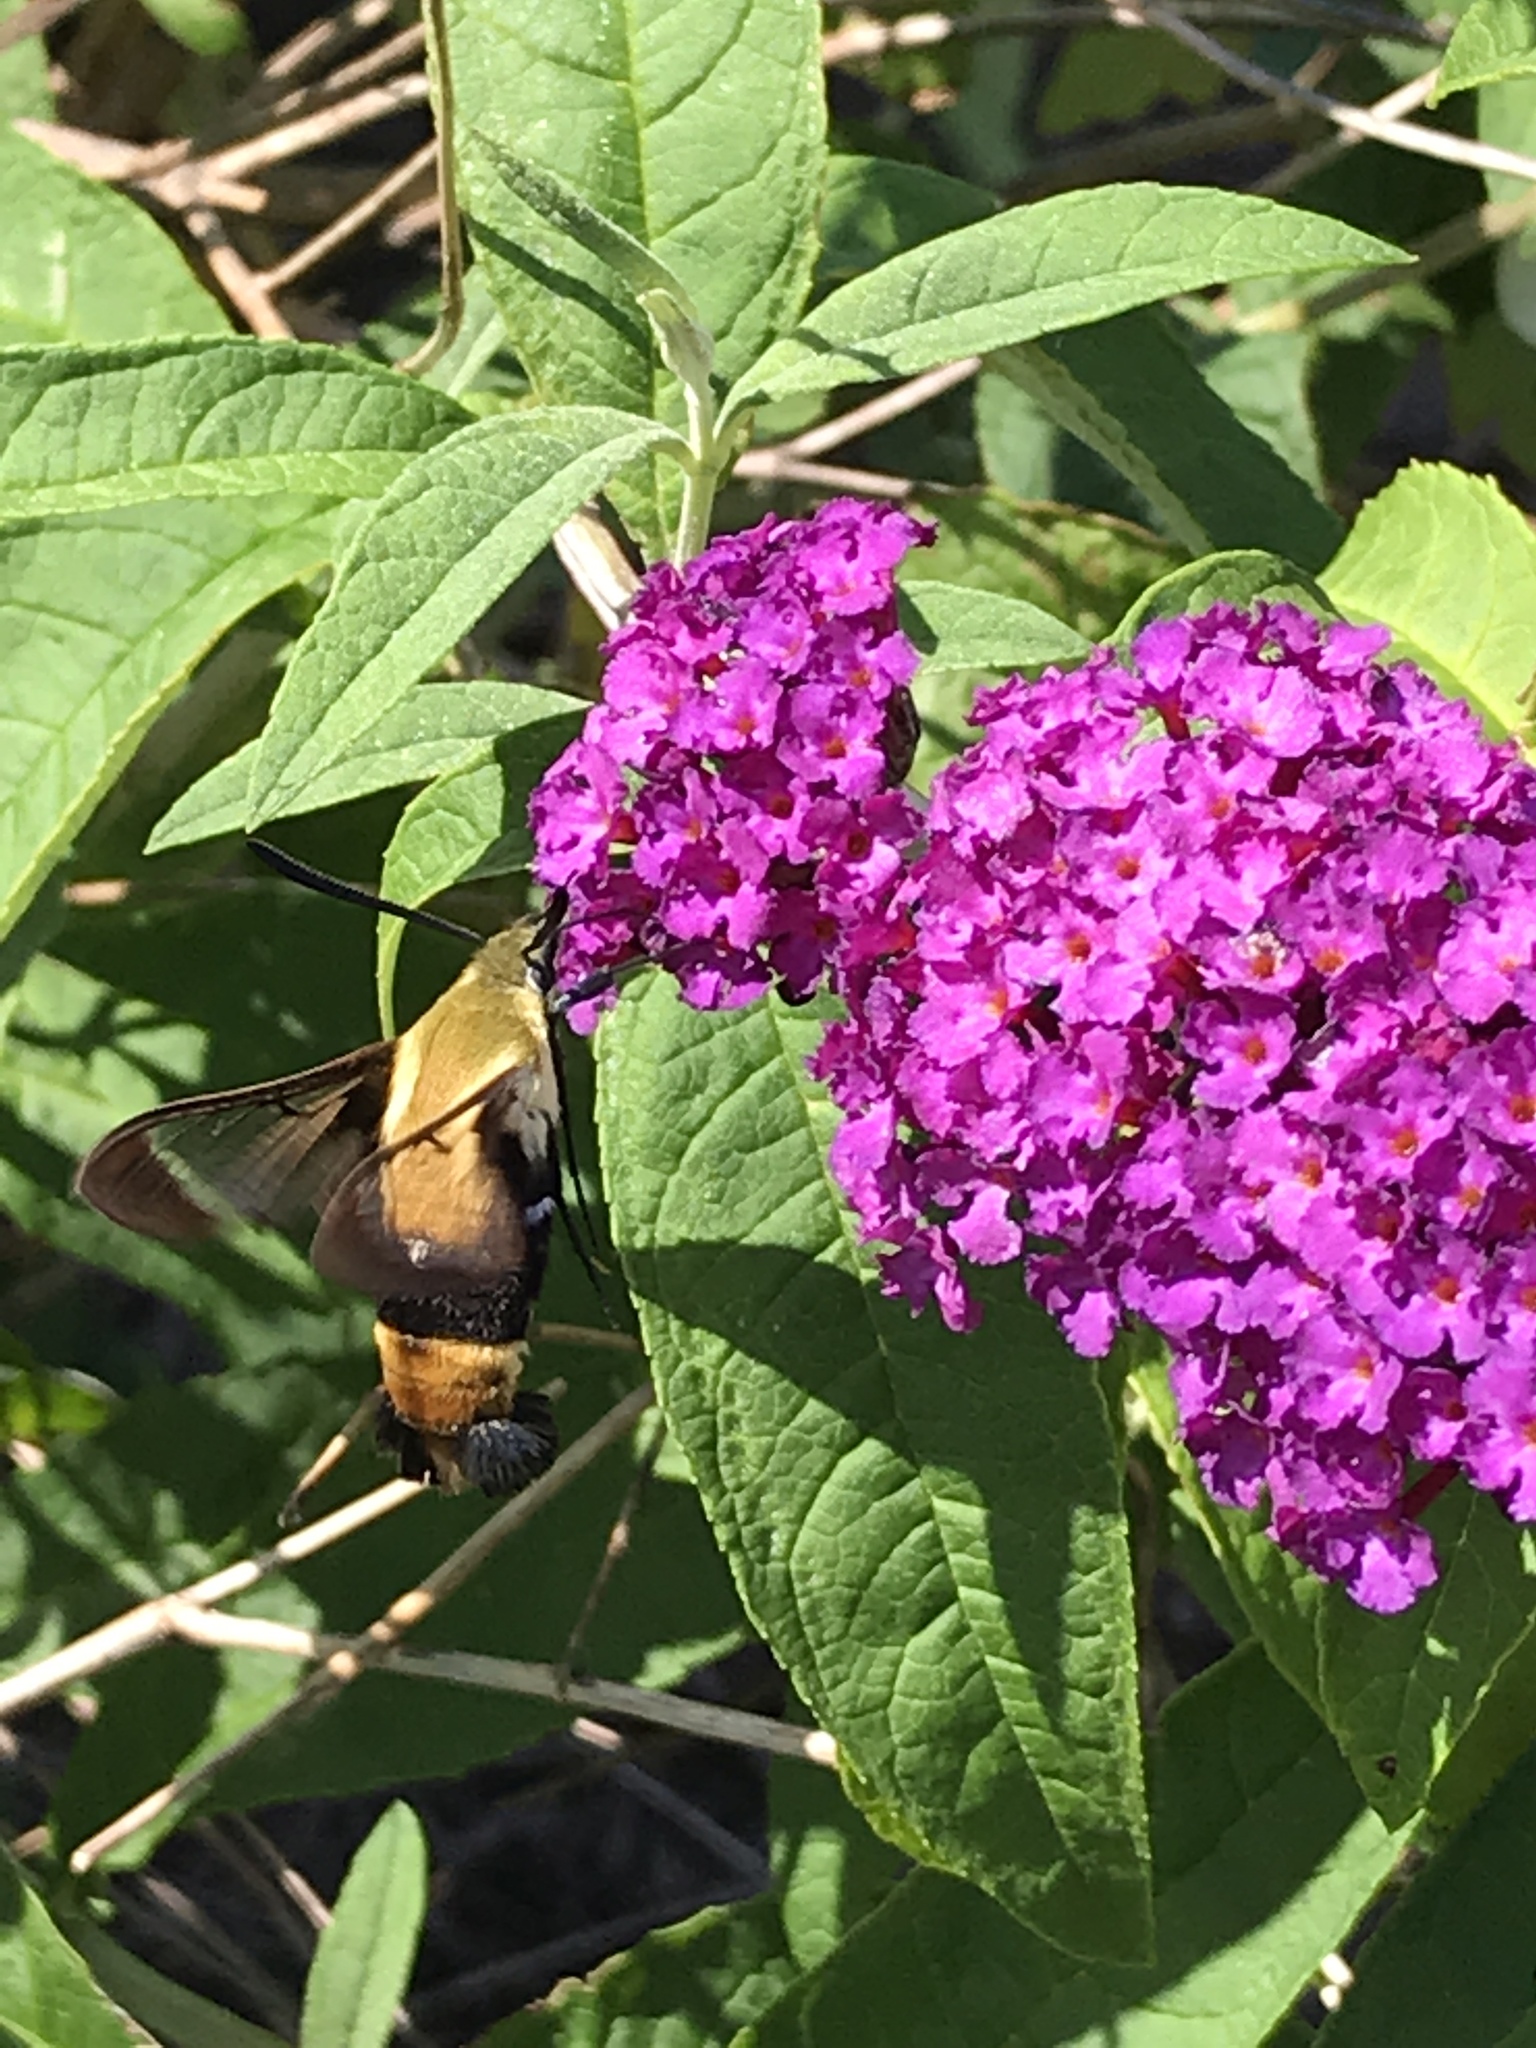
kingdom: Animalia
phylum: Arthropoda
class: Insecta
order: Lepidoptera
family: Sphingidae
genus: Hemaris
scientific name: Hemaris diffinis
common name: Bumblebee moth
